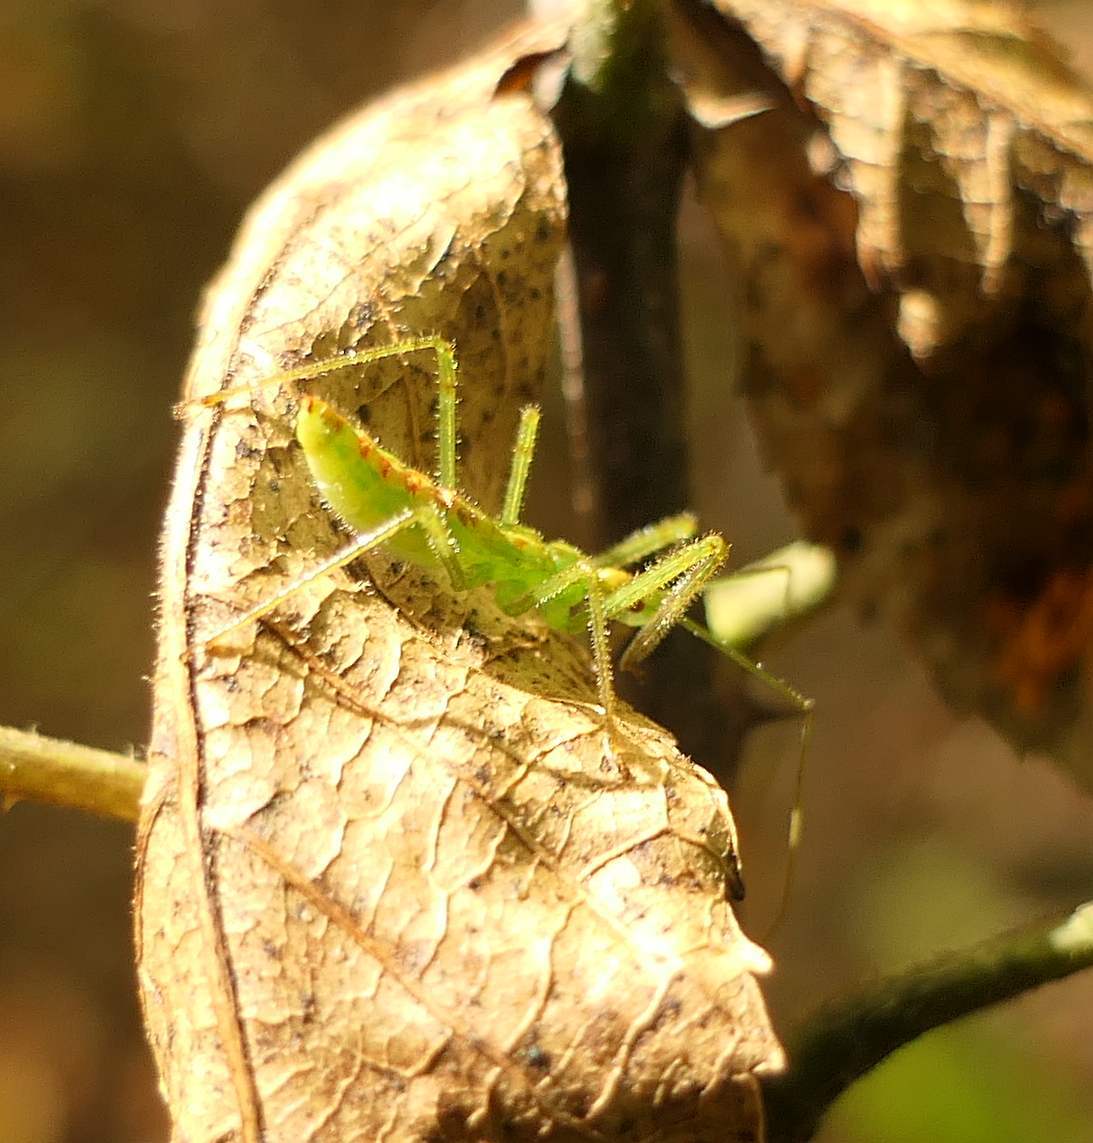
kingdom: Animalia
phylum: Arthropoda
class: Insecta
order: Hemiptera
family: Reduviidae
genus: Zelus
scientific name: Zelus luridus
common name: Pale green assassin bug
